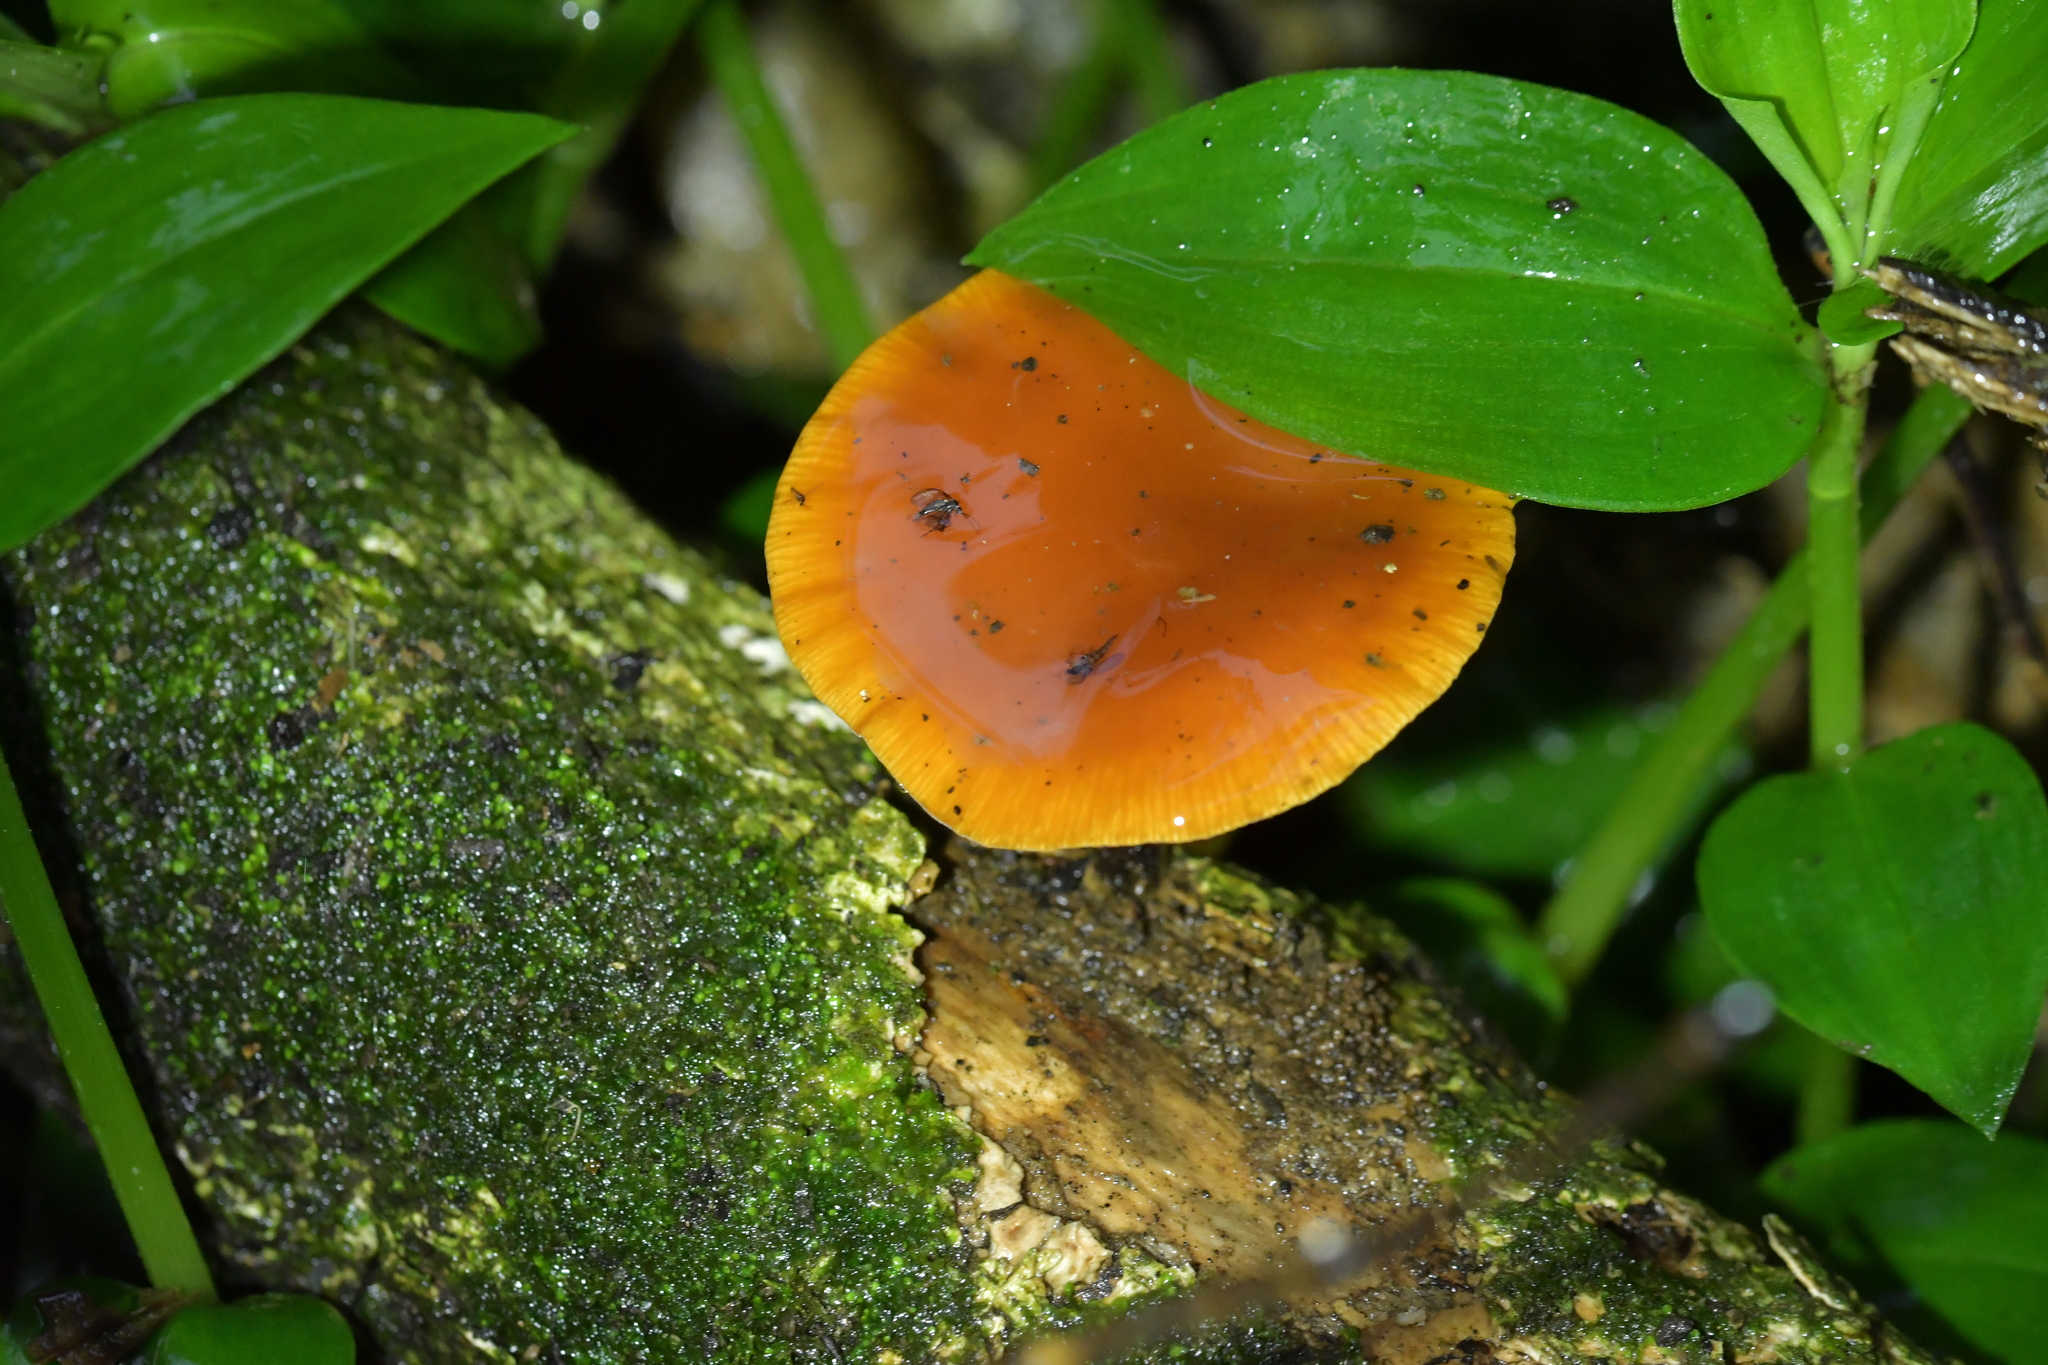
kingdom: Fungi
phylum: Basidiomycota
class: Agaricomycetes
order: Agaricales
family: Physalacriaceae
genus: Flammulina
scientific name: Flammulina velutipes
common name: Velvet shank
